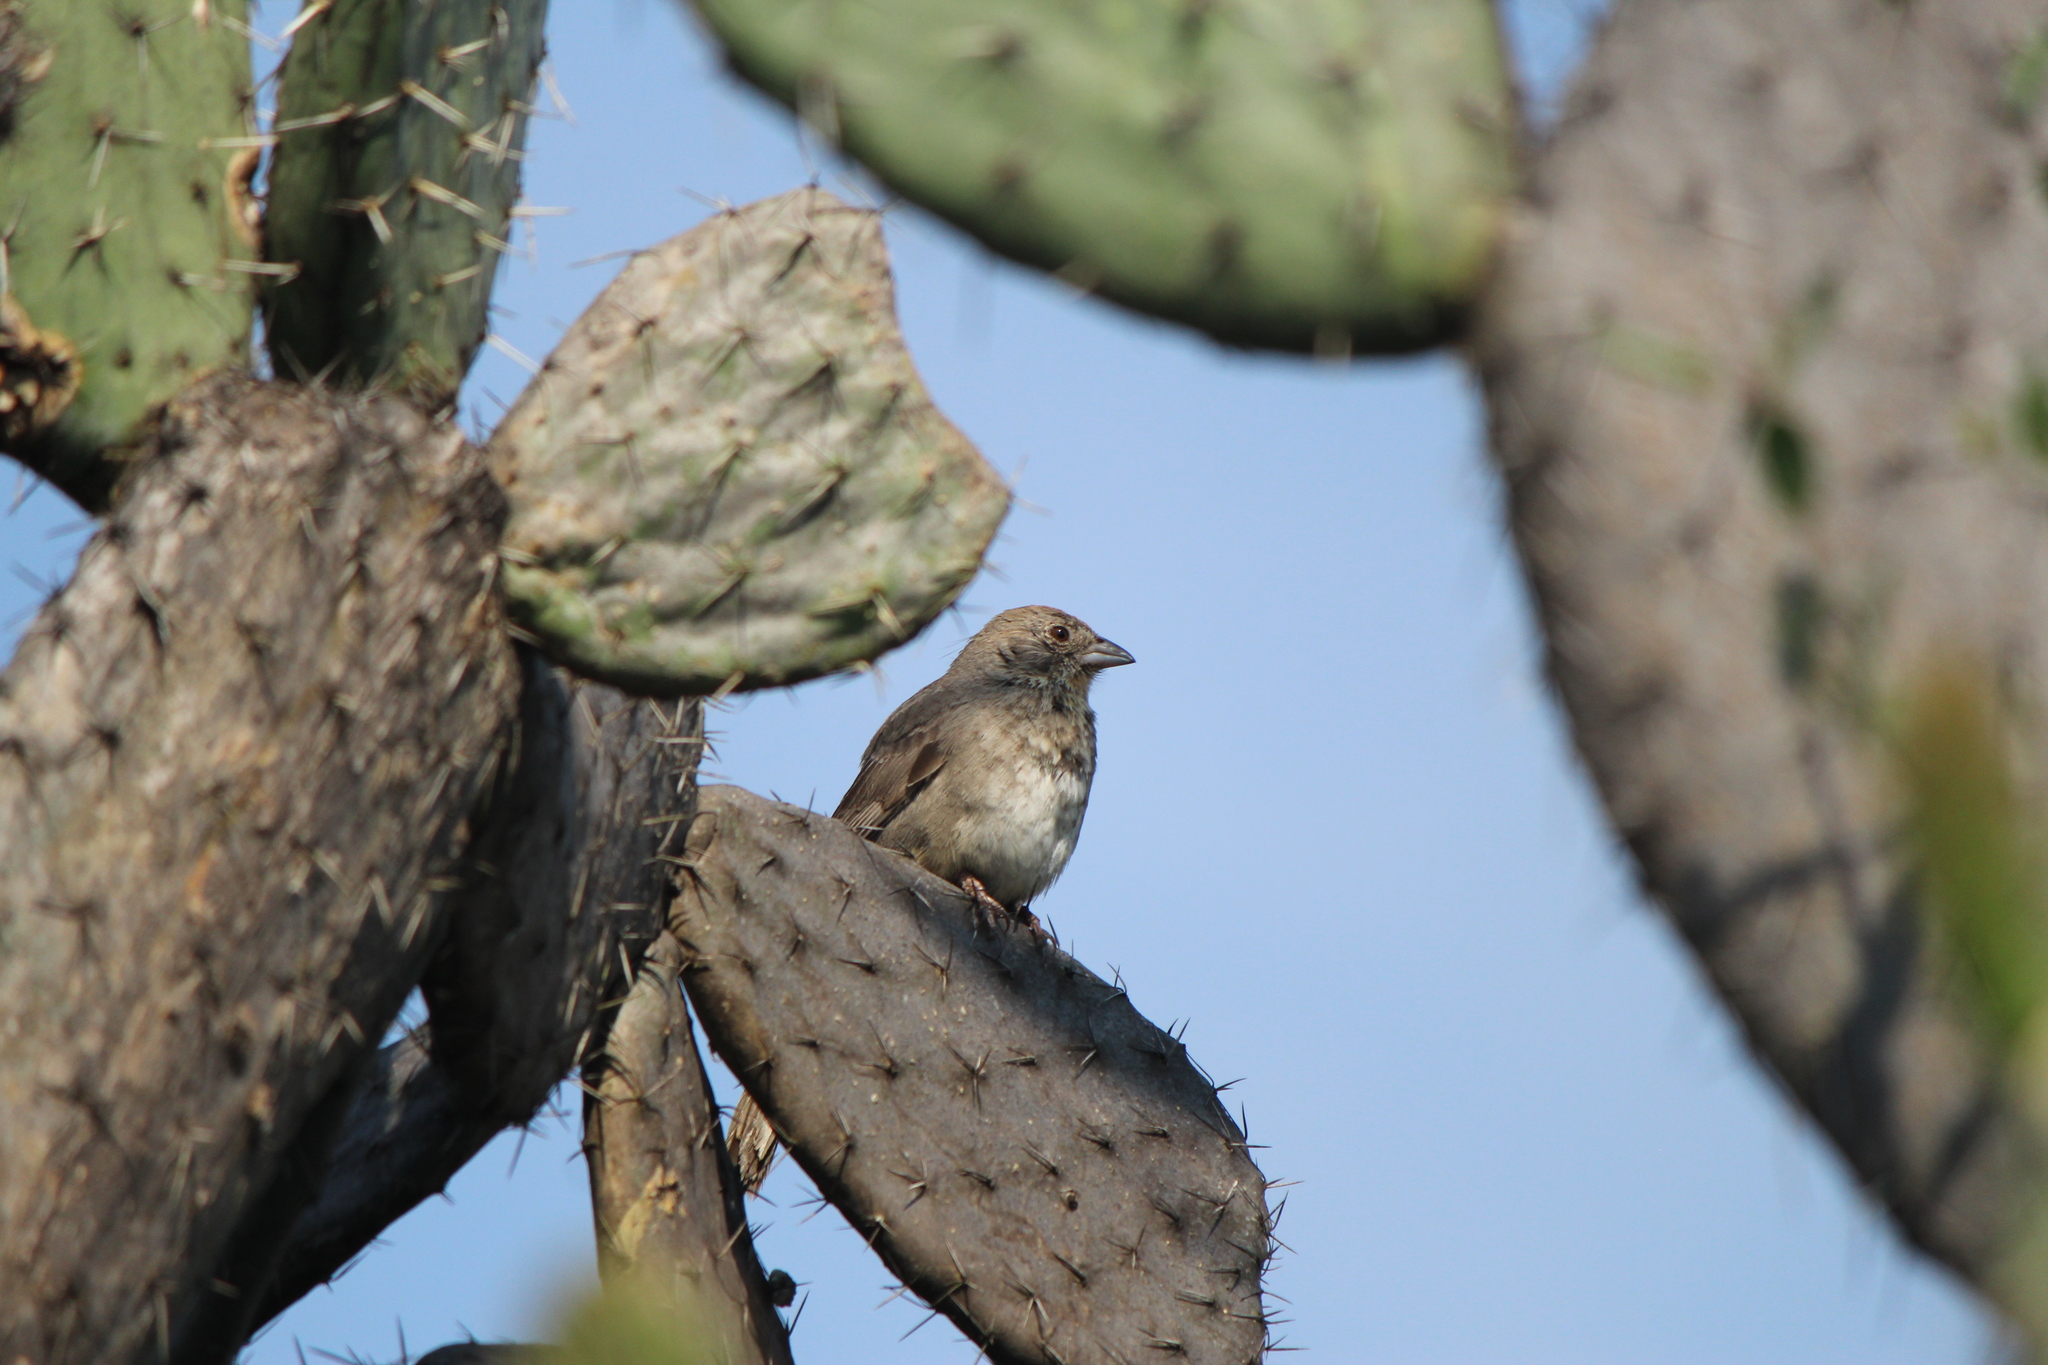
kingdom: Animalia
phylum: Chordata
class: Aves
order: Passeriformes
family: Passerellidae
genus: Melozone
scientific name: Melozone fusca
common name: Canyon towhee
